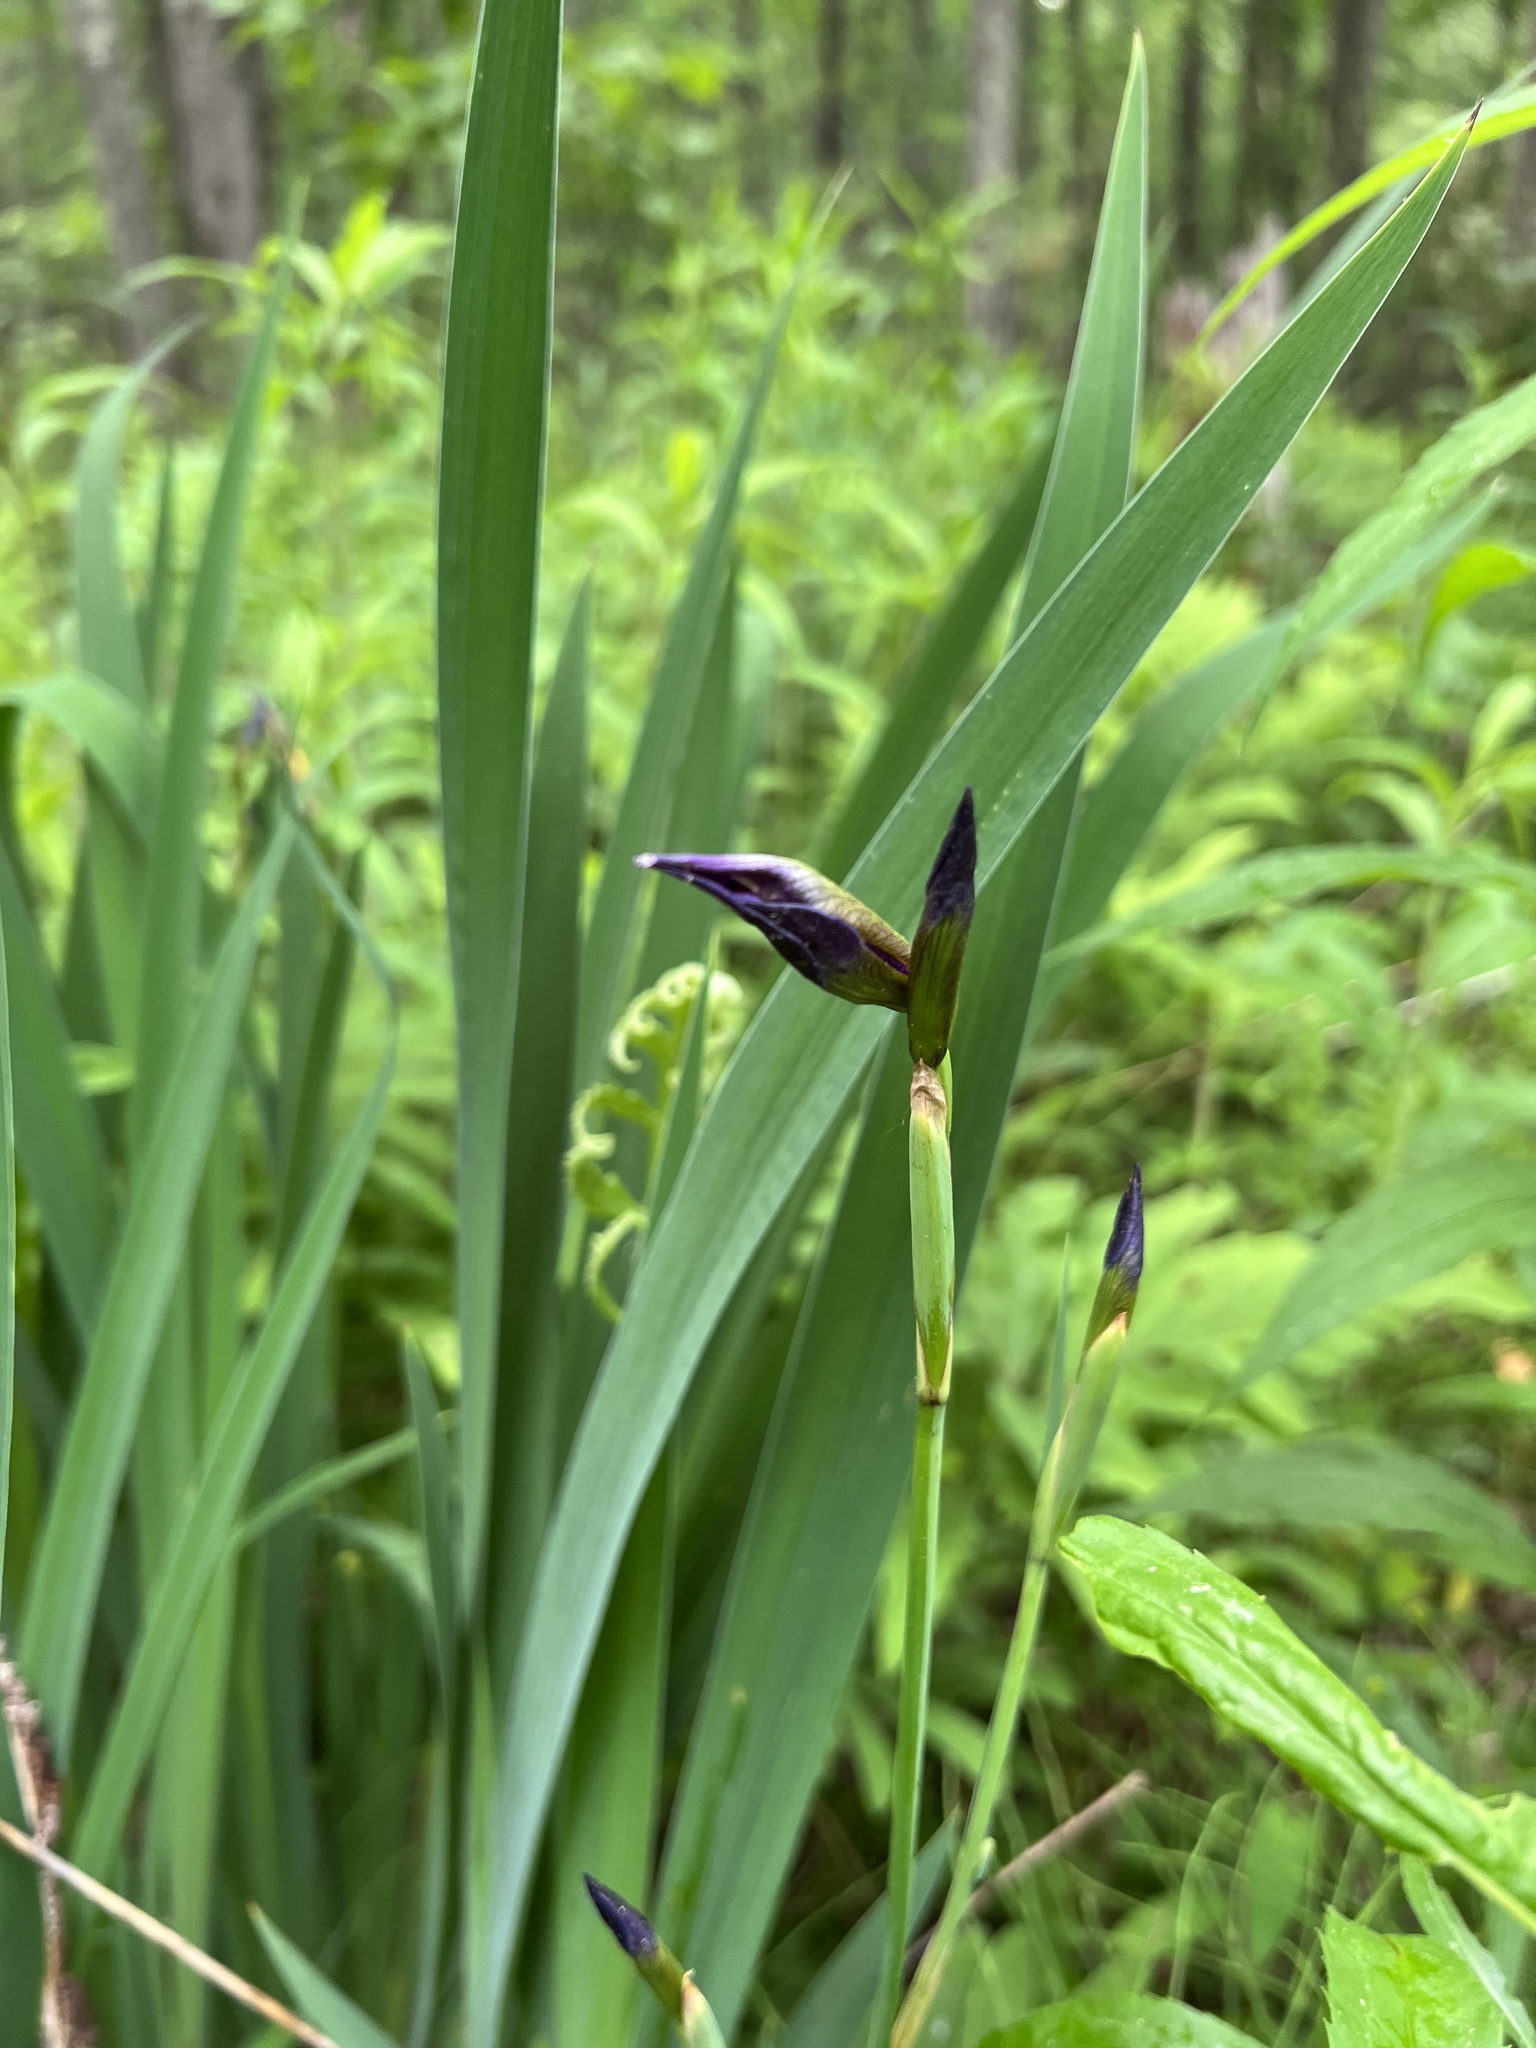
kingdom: Plantae
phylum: Tracheophyta
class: Liliopsida
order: Asparagales
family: Iridaceae
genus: Iris
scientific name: Iris versicolor
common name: Purple iris
